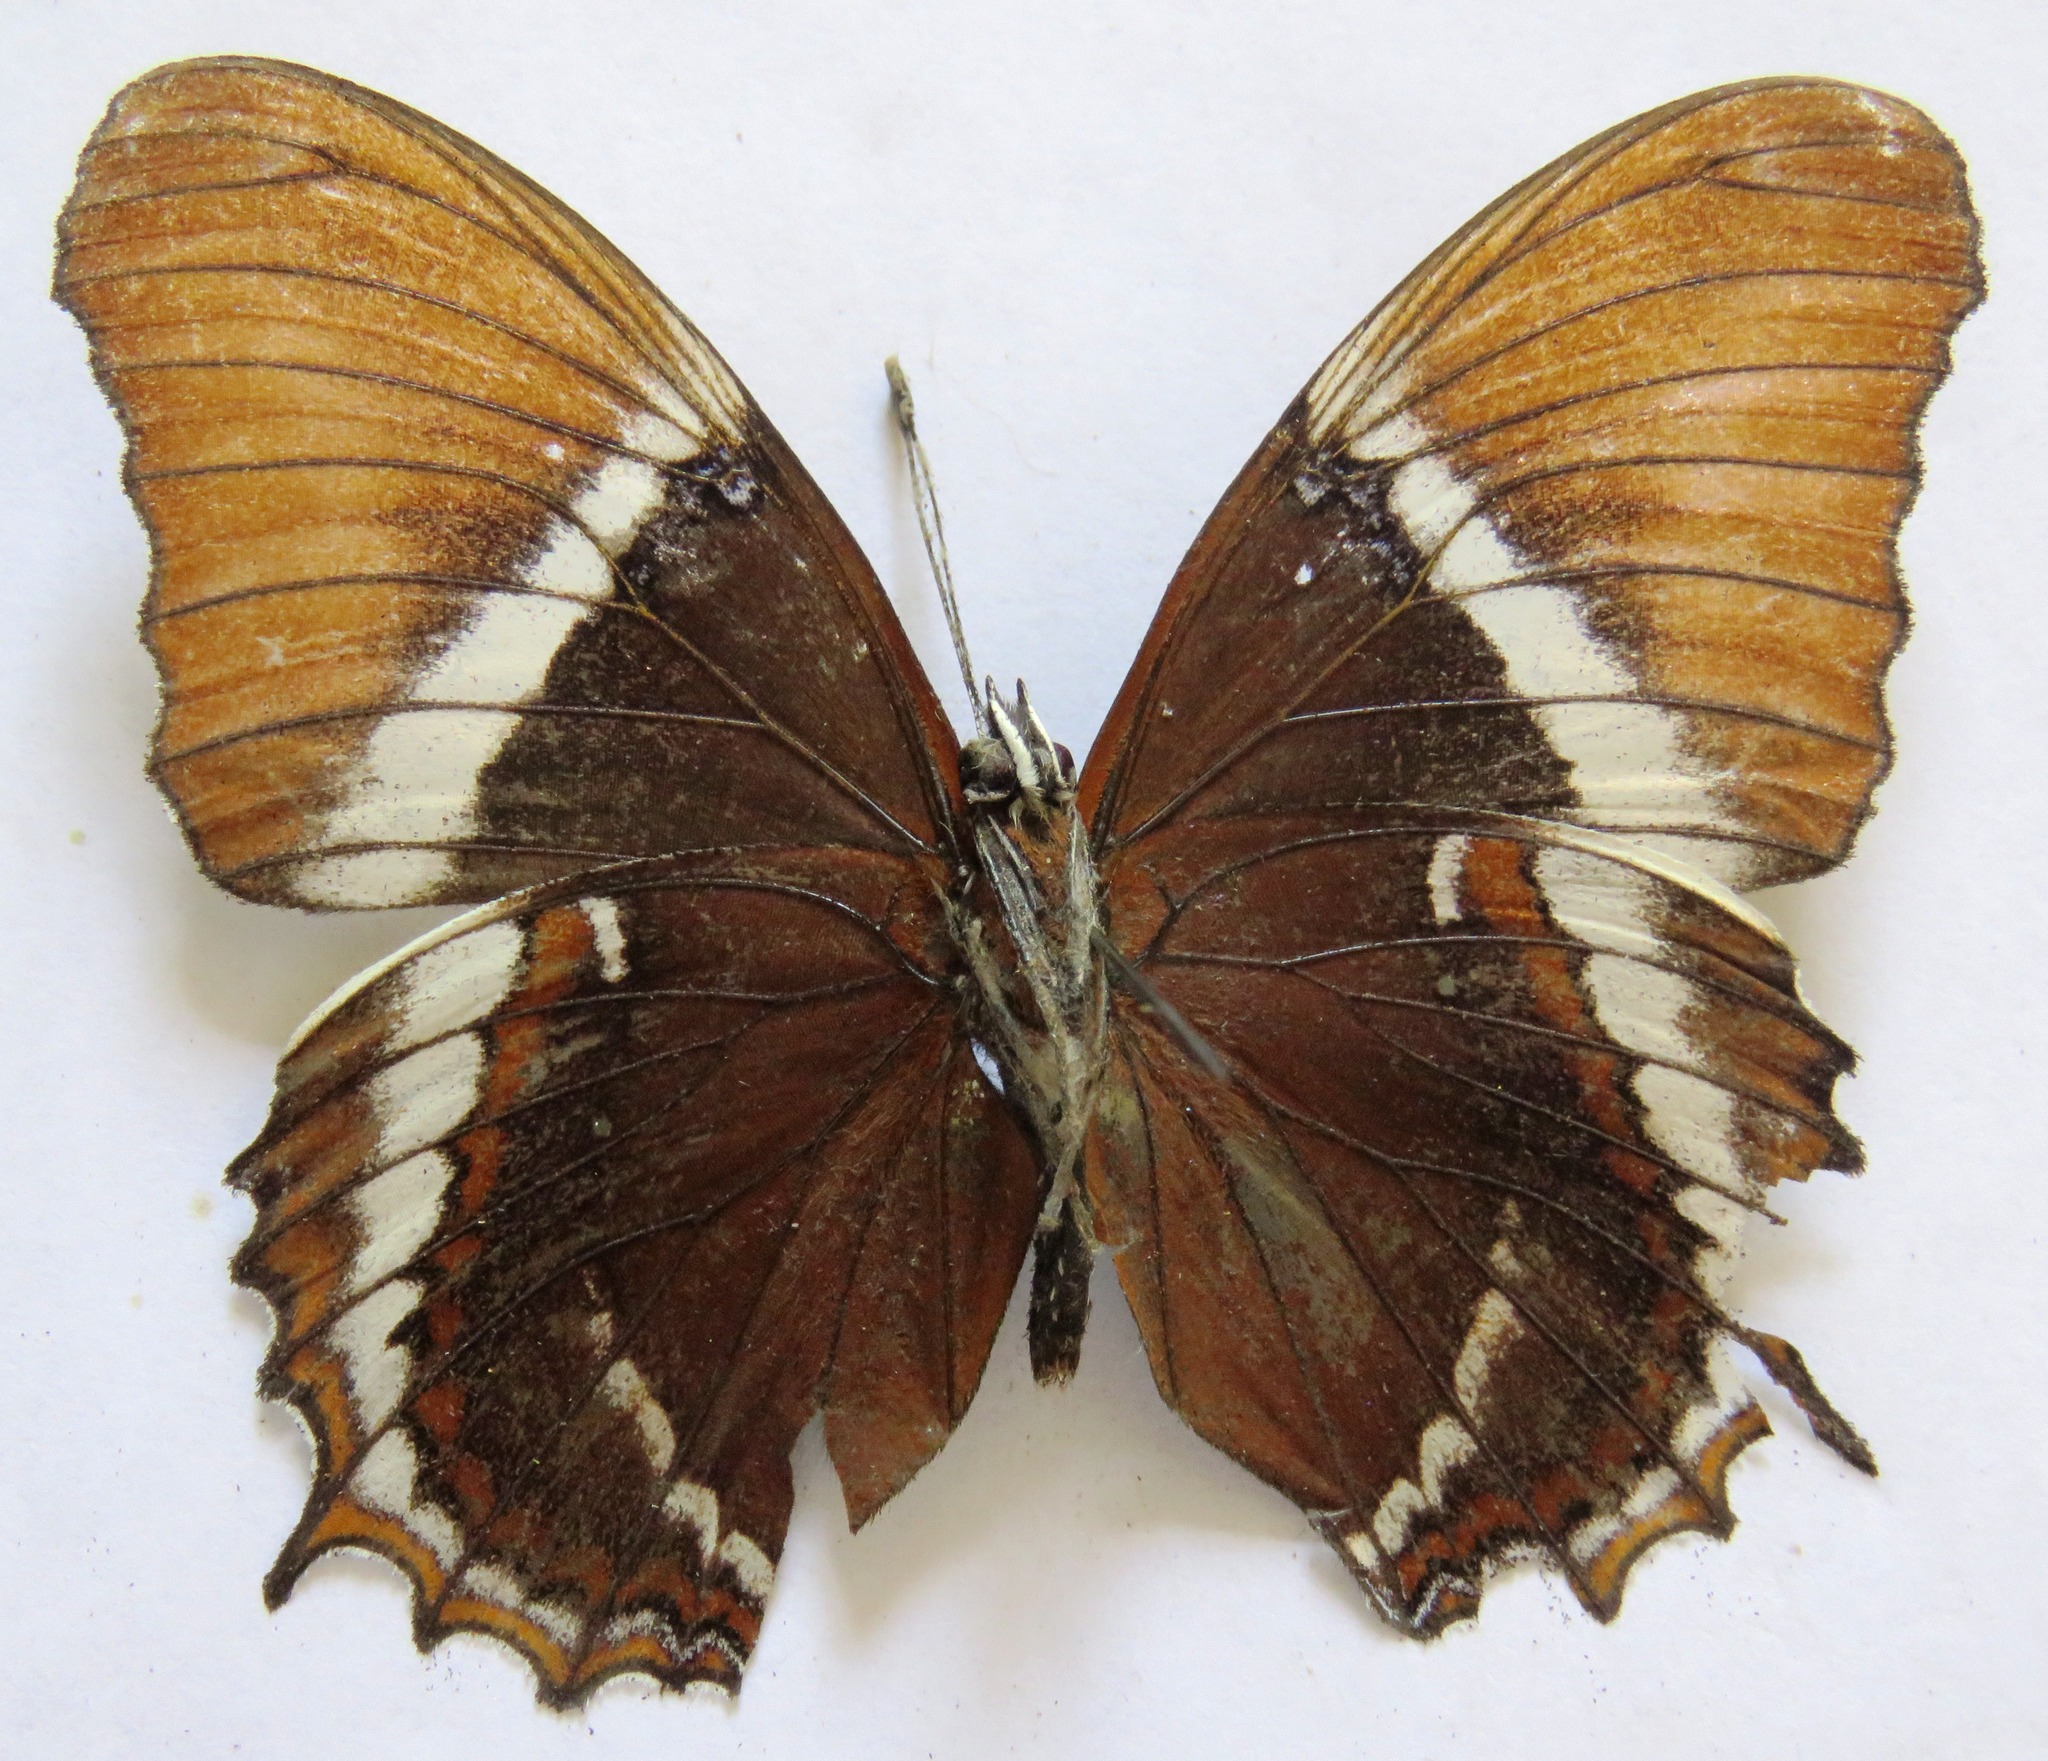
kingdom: Animalia
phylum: Arthropoda
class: Insecta
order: Lepidoptera
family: Nymphalidae
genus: Siproeta
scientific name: Siproeta epaphus
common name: Rusty-tipped page
